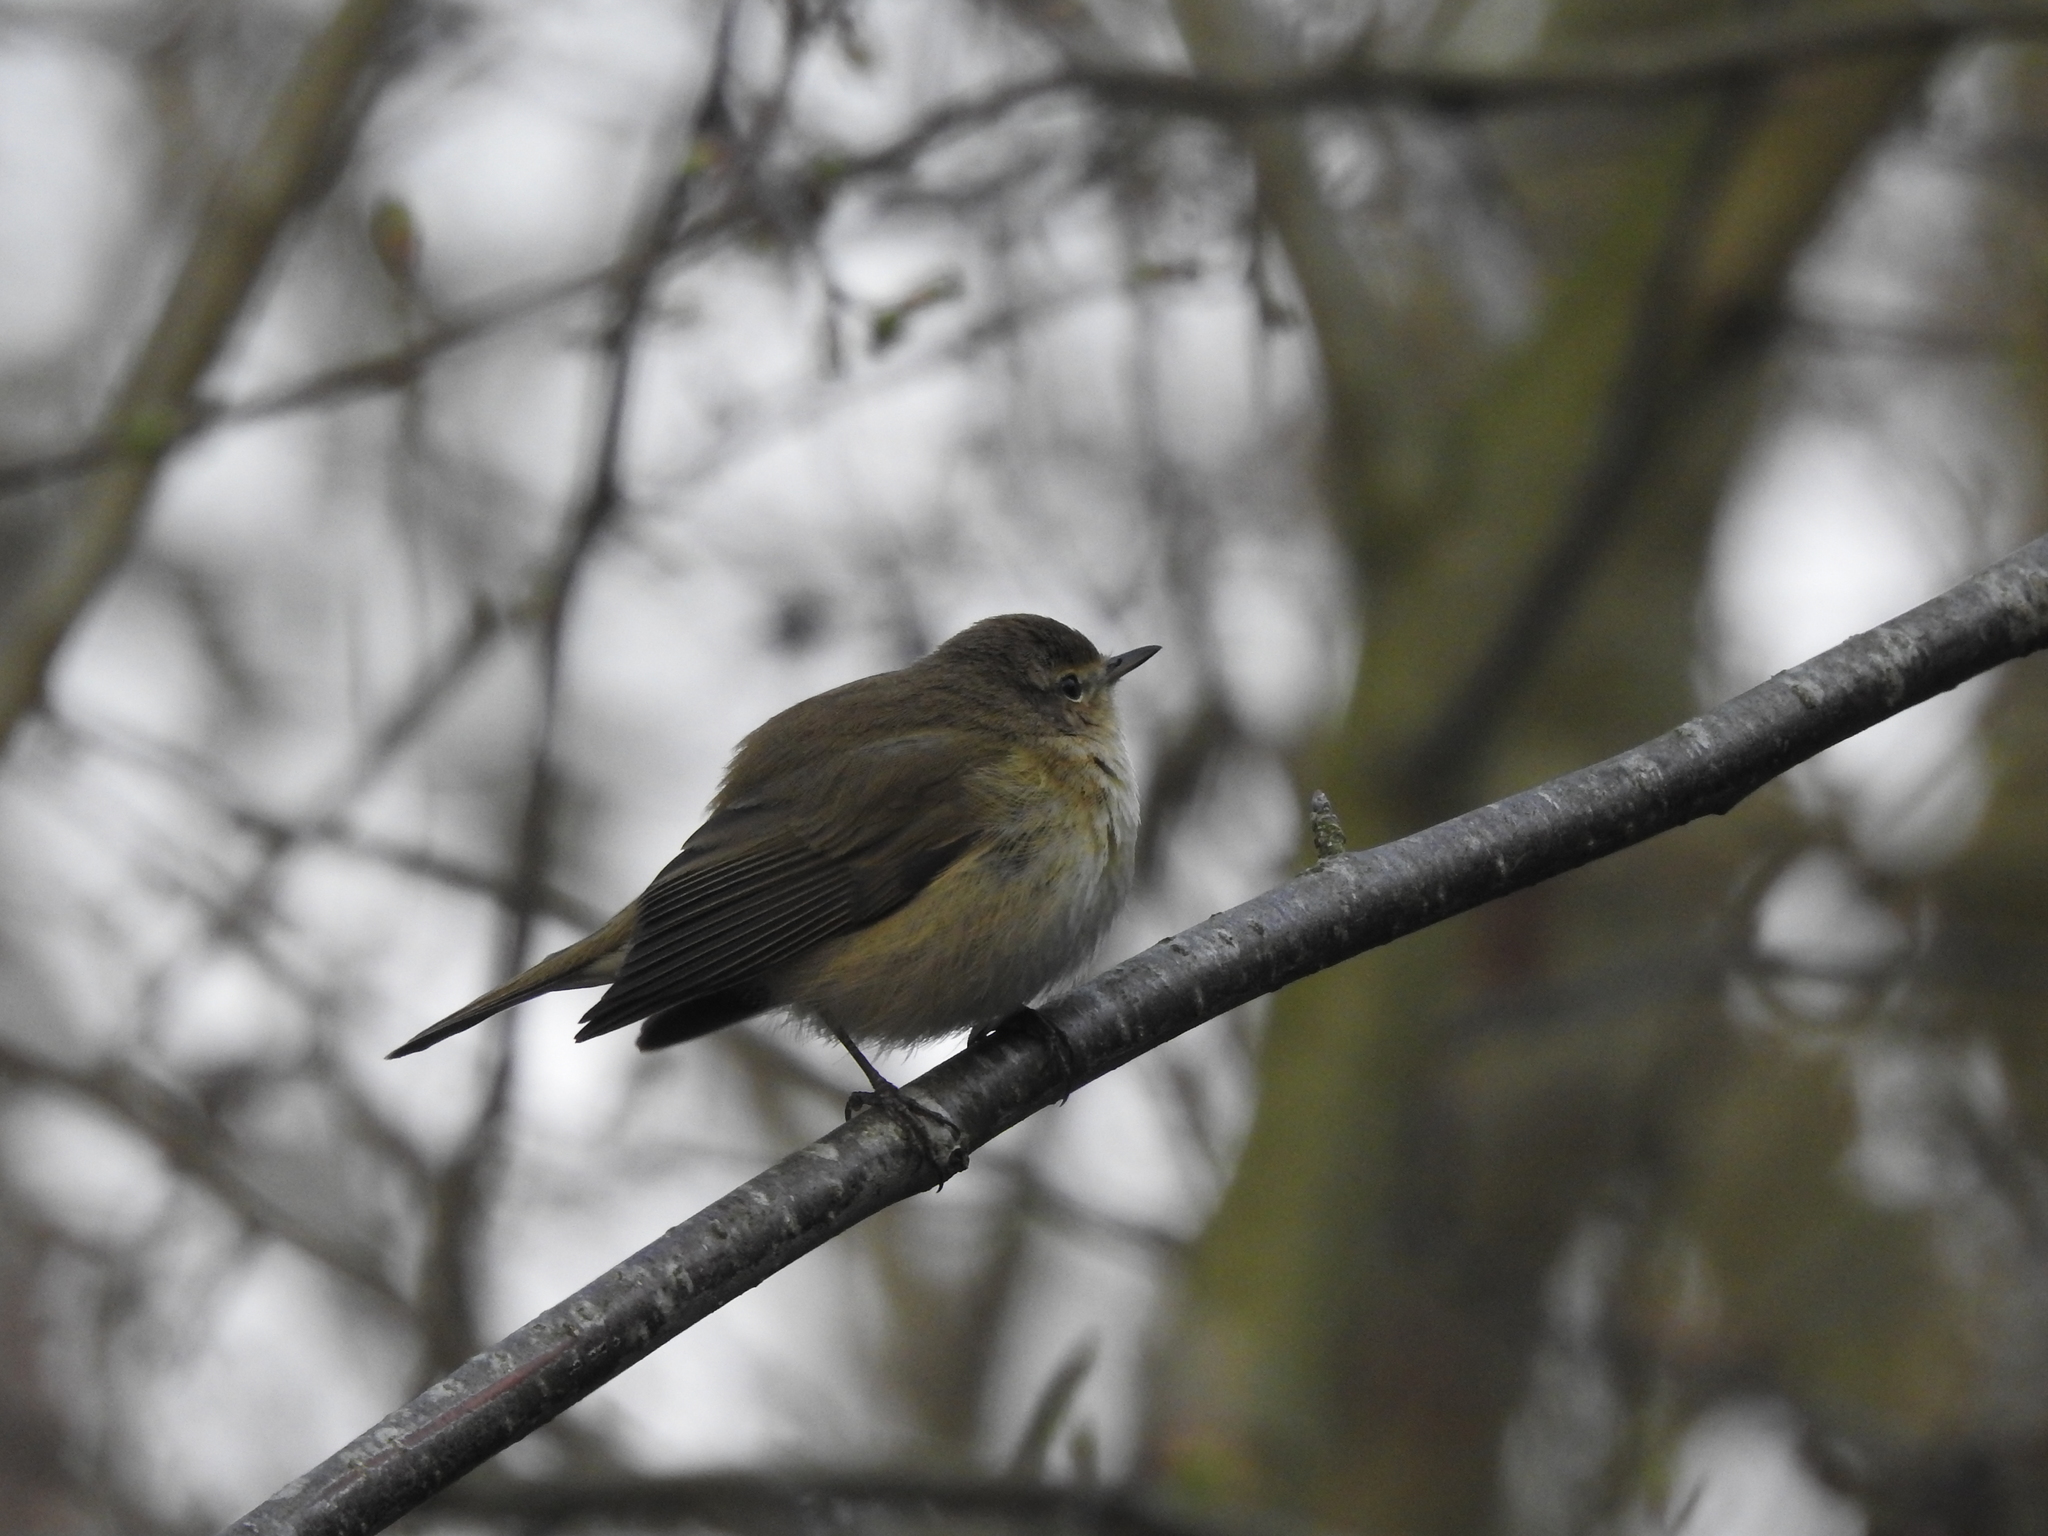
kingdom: Animalia
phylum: Chordata
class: Aves
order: Passeriformes
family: Phylloscopidae
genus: Phylloscopus
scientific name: Phylloscopus collybita
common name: Common chiffchaff
